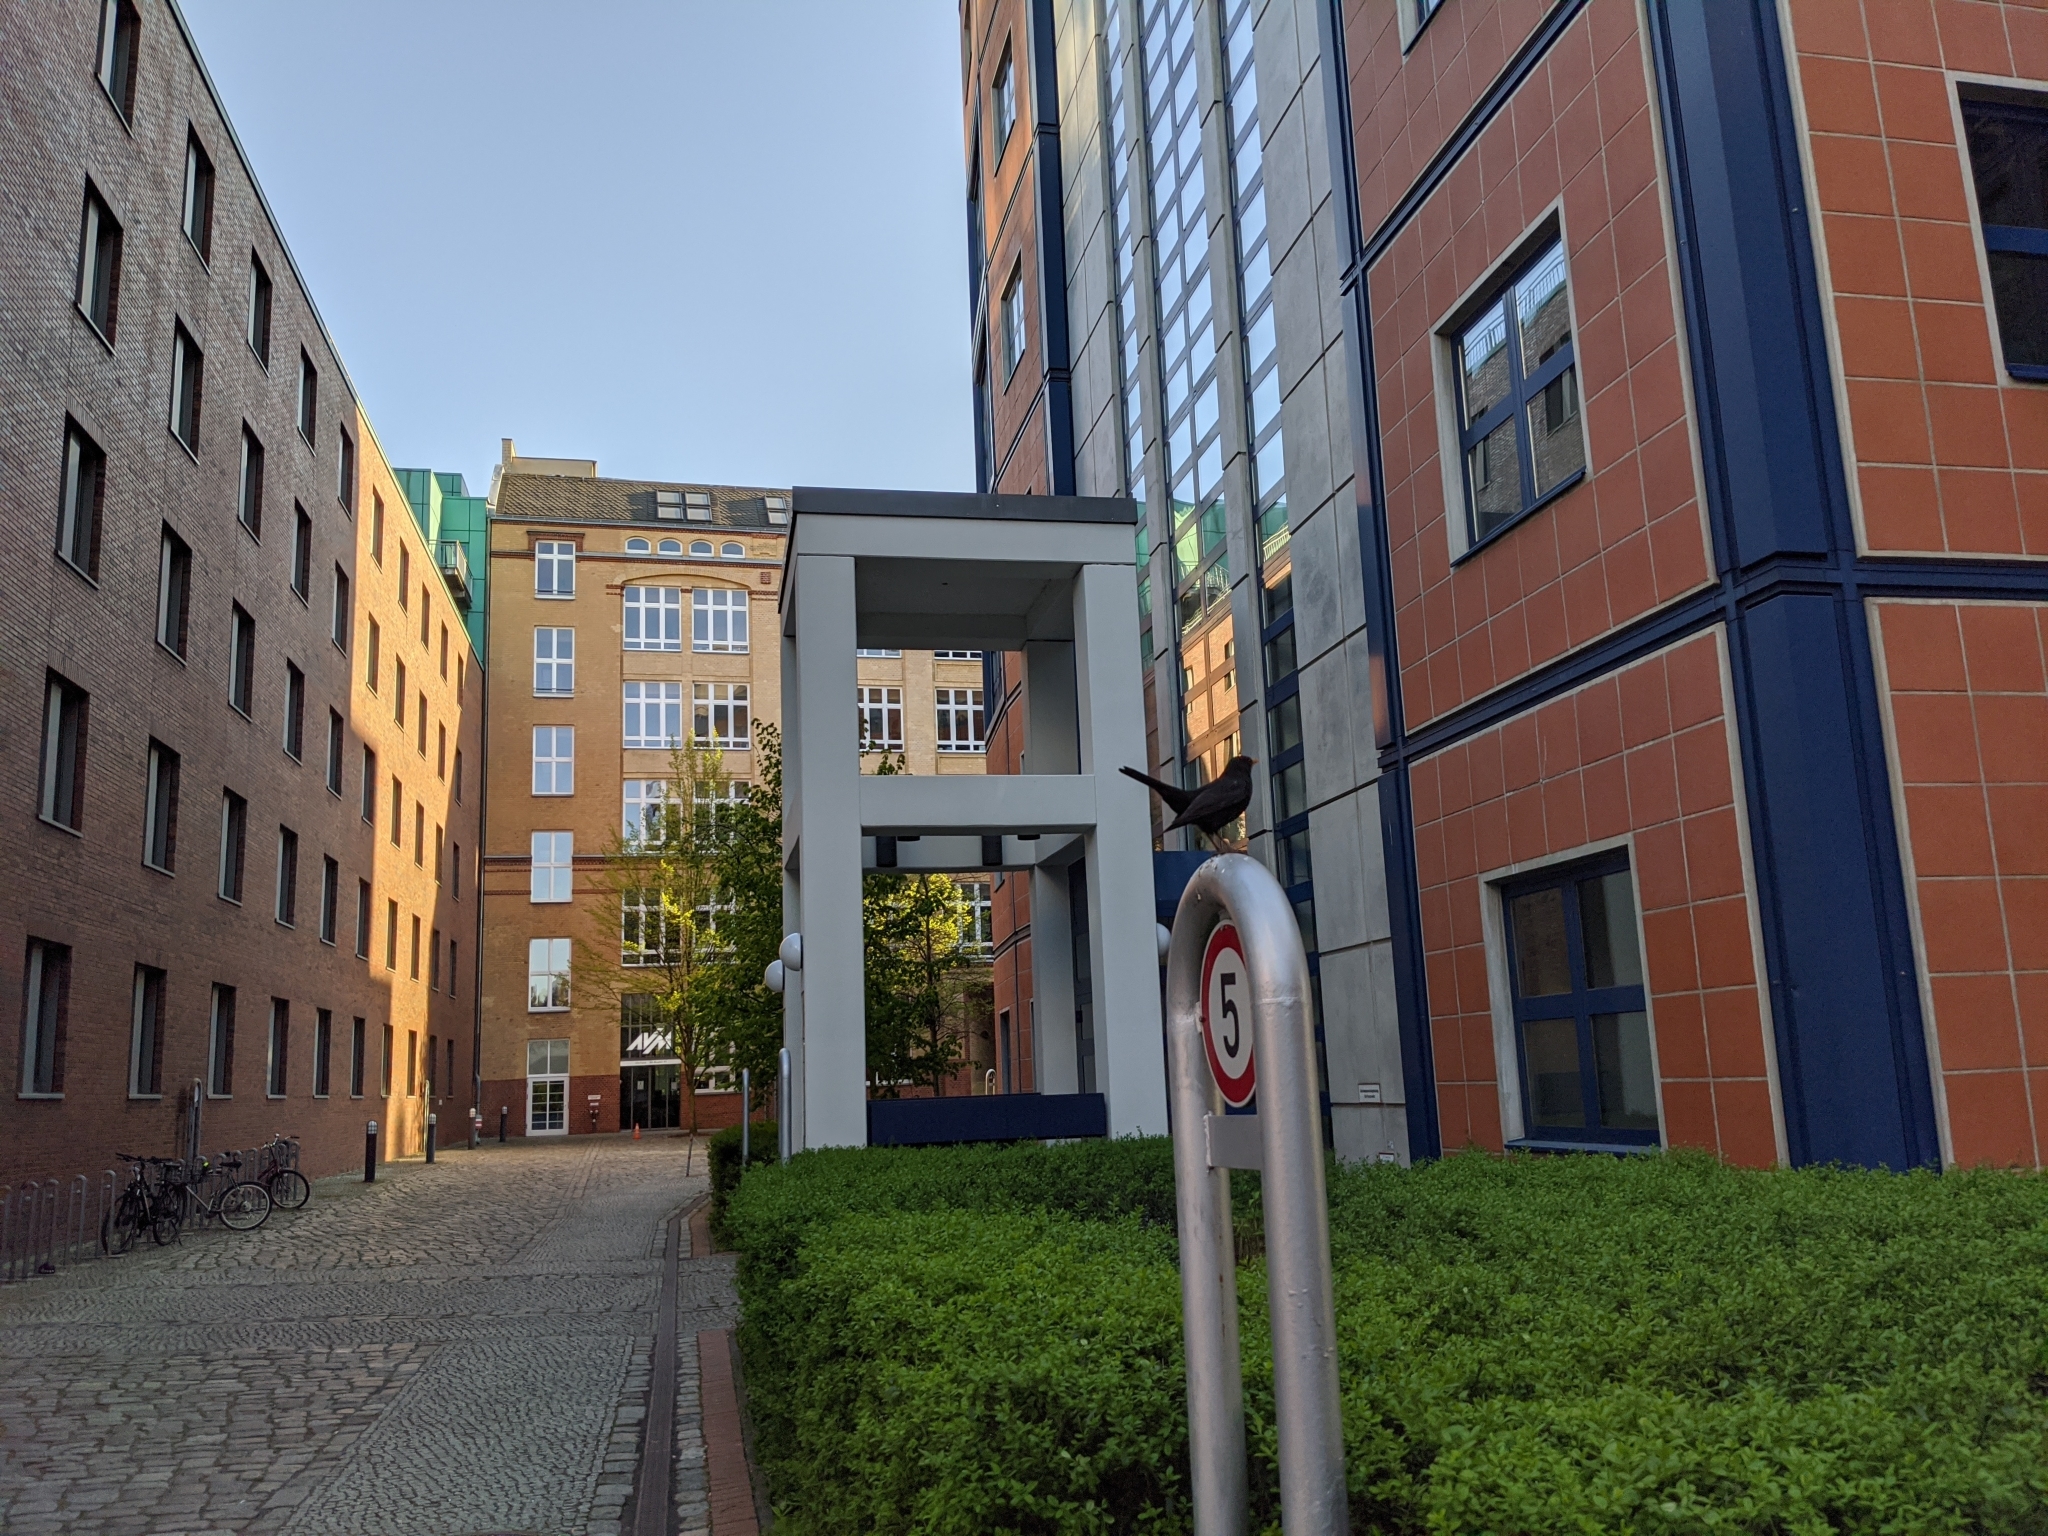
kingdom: Animalia
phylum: Chordata
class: Aves
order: Passeriformes
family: Turdidae
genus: Turdus
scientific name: Turdus merula
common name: Common blackbird
